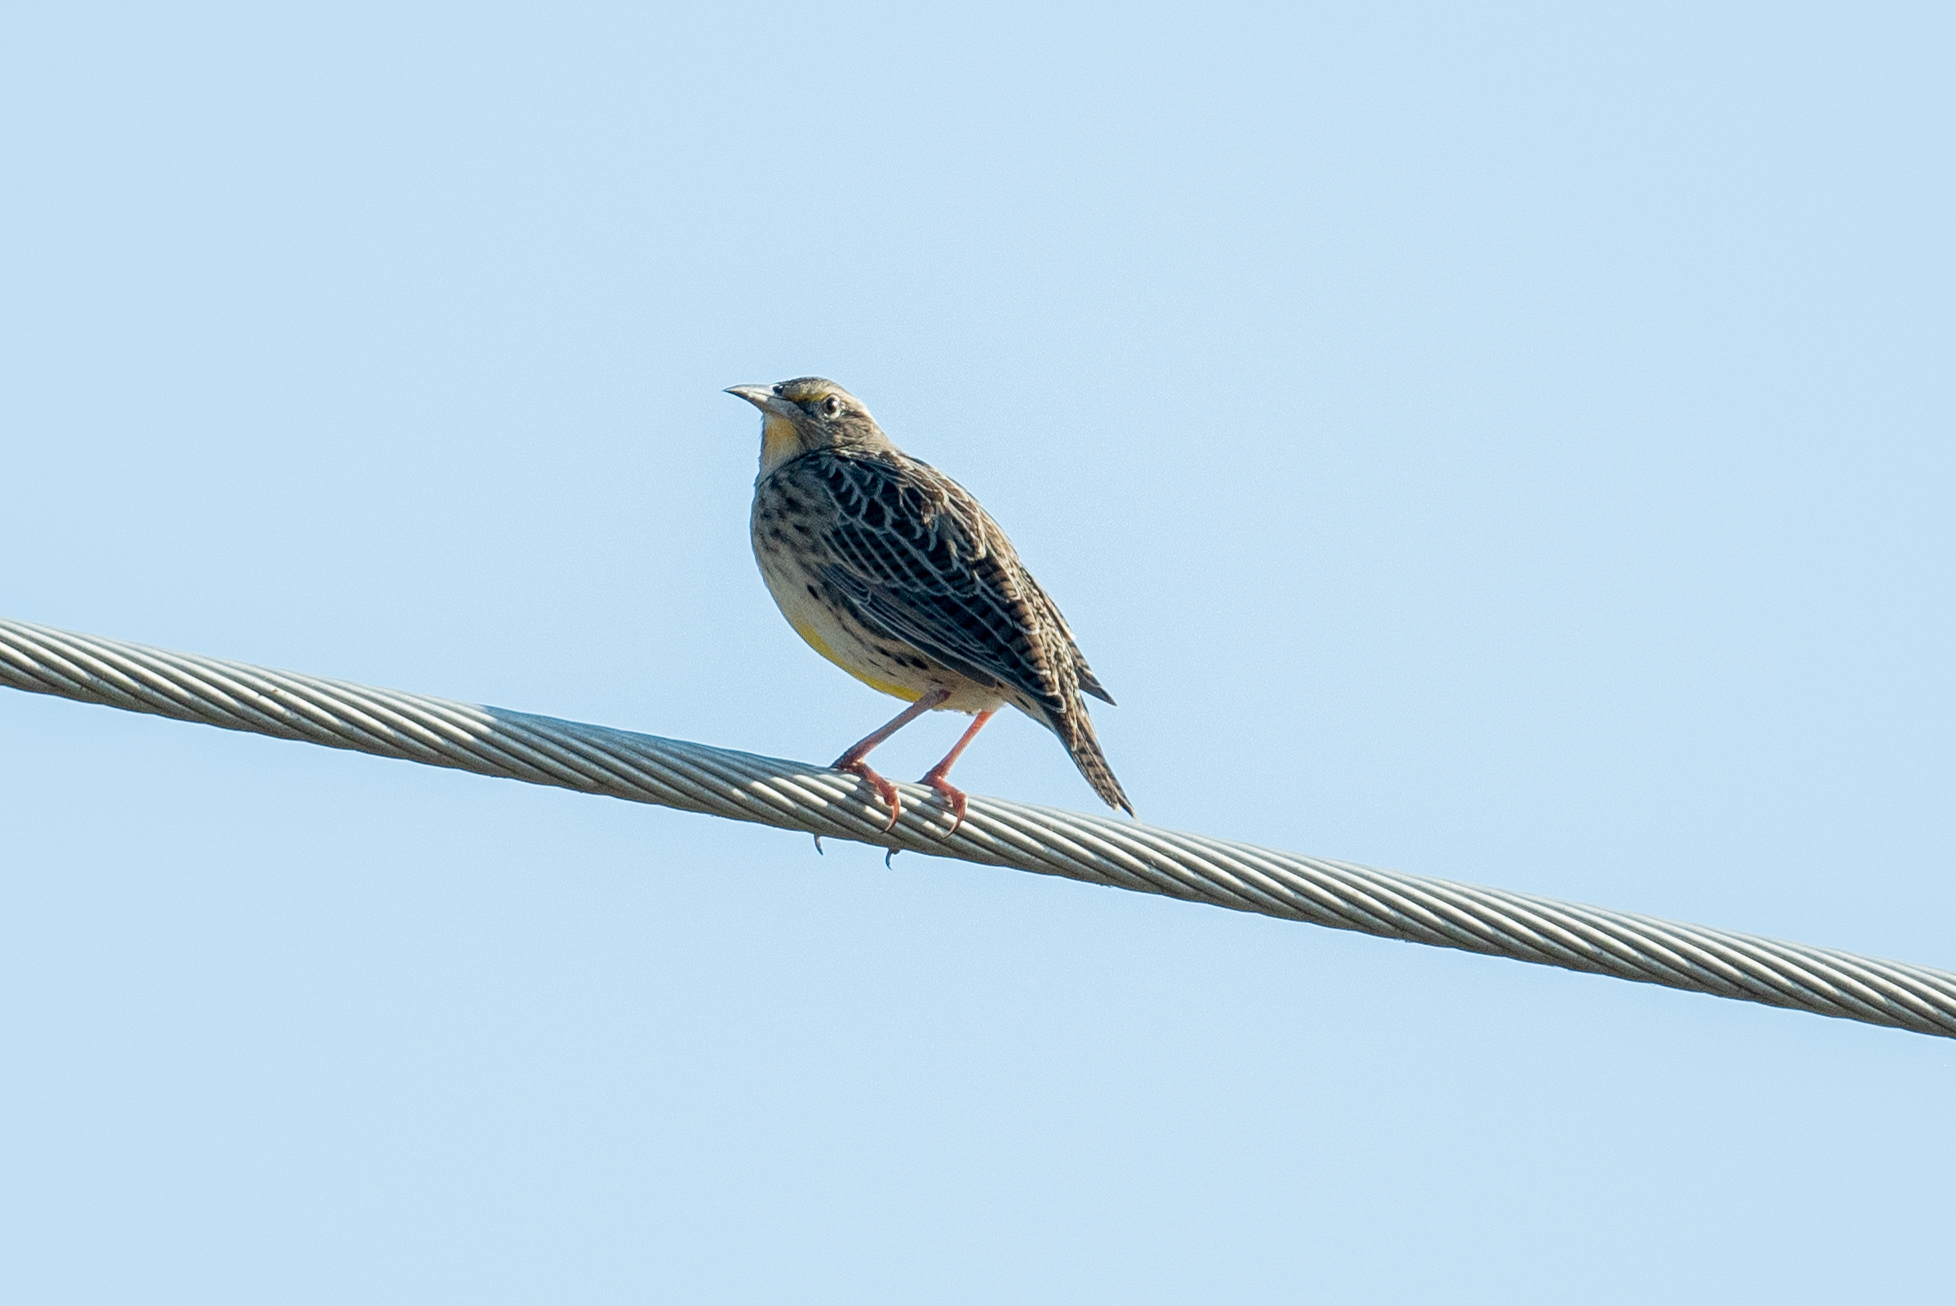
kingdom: Animalia
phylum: Chordata
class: Aves
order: Passeriformes
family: Icteridae
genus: Sturnella
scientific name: Sturnella neglecta
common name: Western meadowlark
